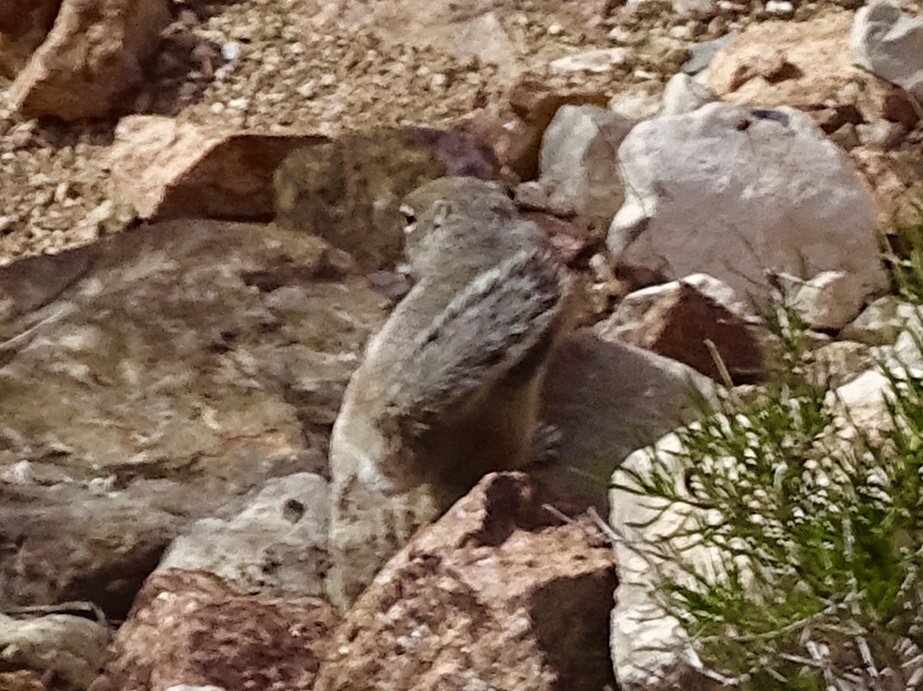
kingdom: Animalia
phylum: Chordata
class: Mammalia
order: Rodentia
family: Sciuridae
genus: Ammospermophilus
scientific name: Ammospermophilus interpres
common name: Texas antelope squirrel
